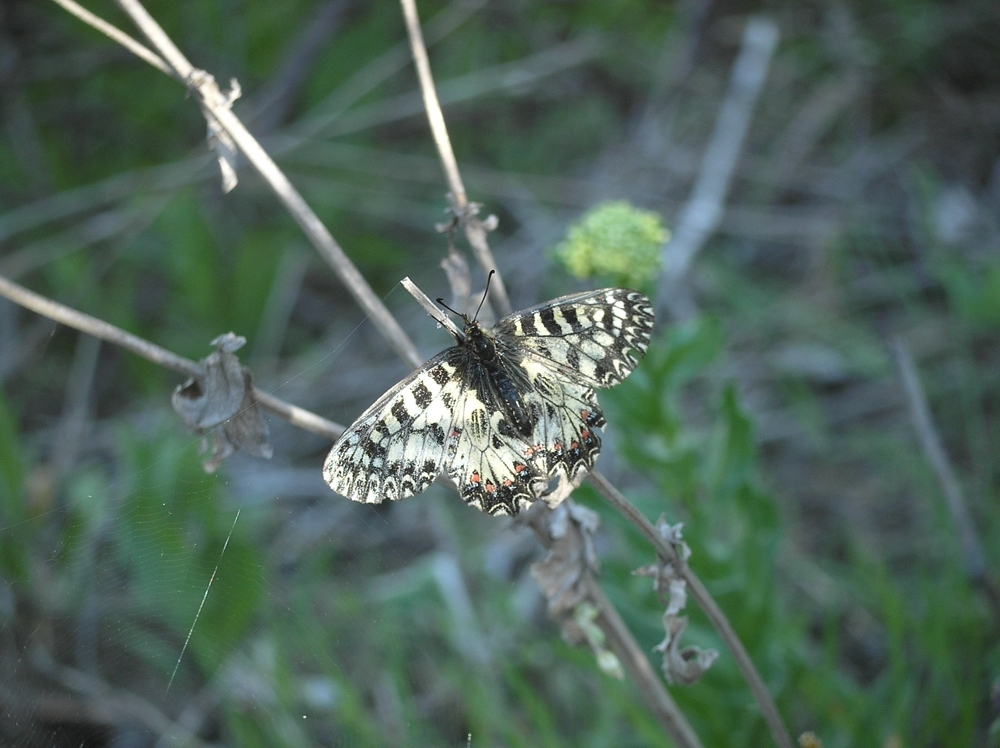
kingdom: Animalia
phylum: Arthropoda
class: Insecta
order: Lepidoptera
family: Papilionidae
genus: Zerynthia
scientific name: Zerynthia polyxena
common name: Southern festoon
